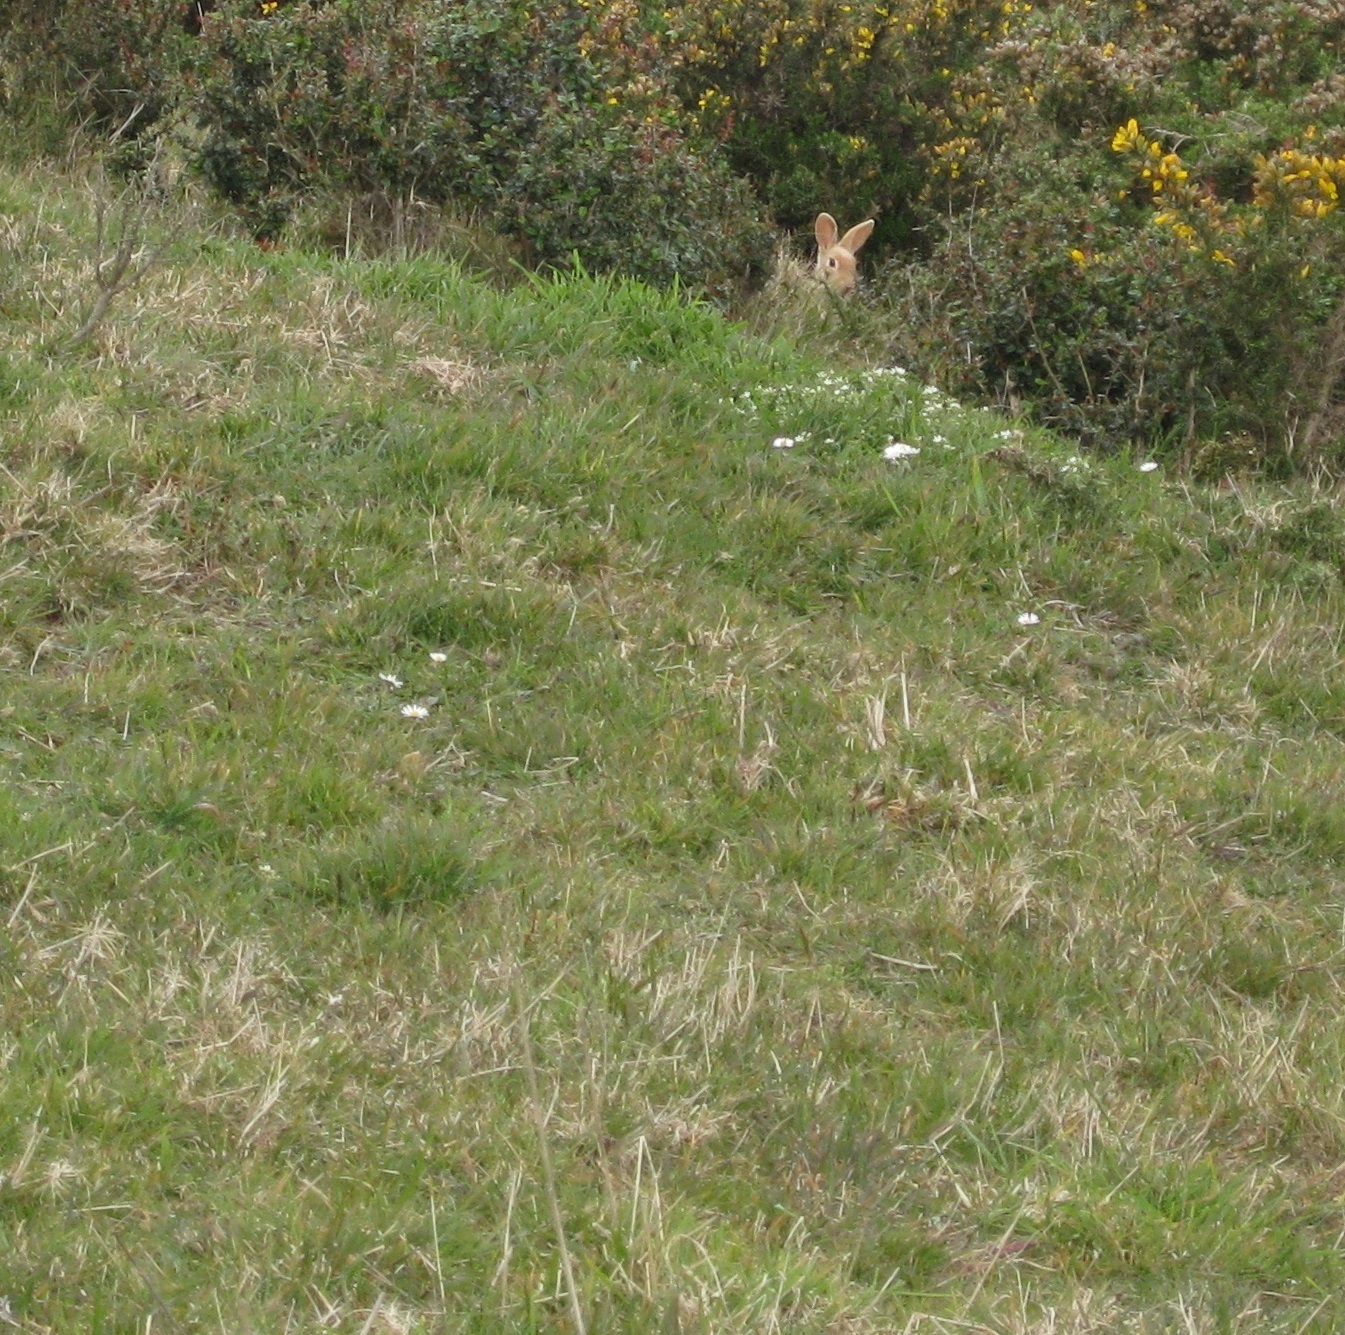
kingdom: Animalia
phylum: Chordata
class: Mammalia
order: Lagomorpha
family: Leporidae
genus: Oryctolagus
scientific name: Oryctolagus cuniculus
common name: European rabbit
